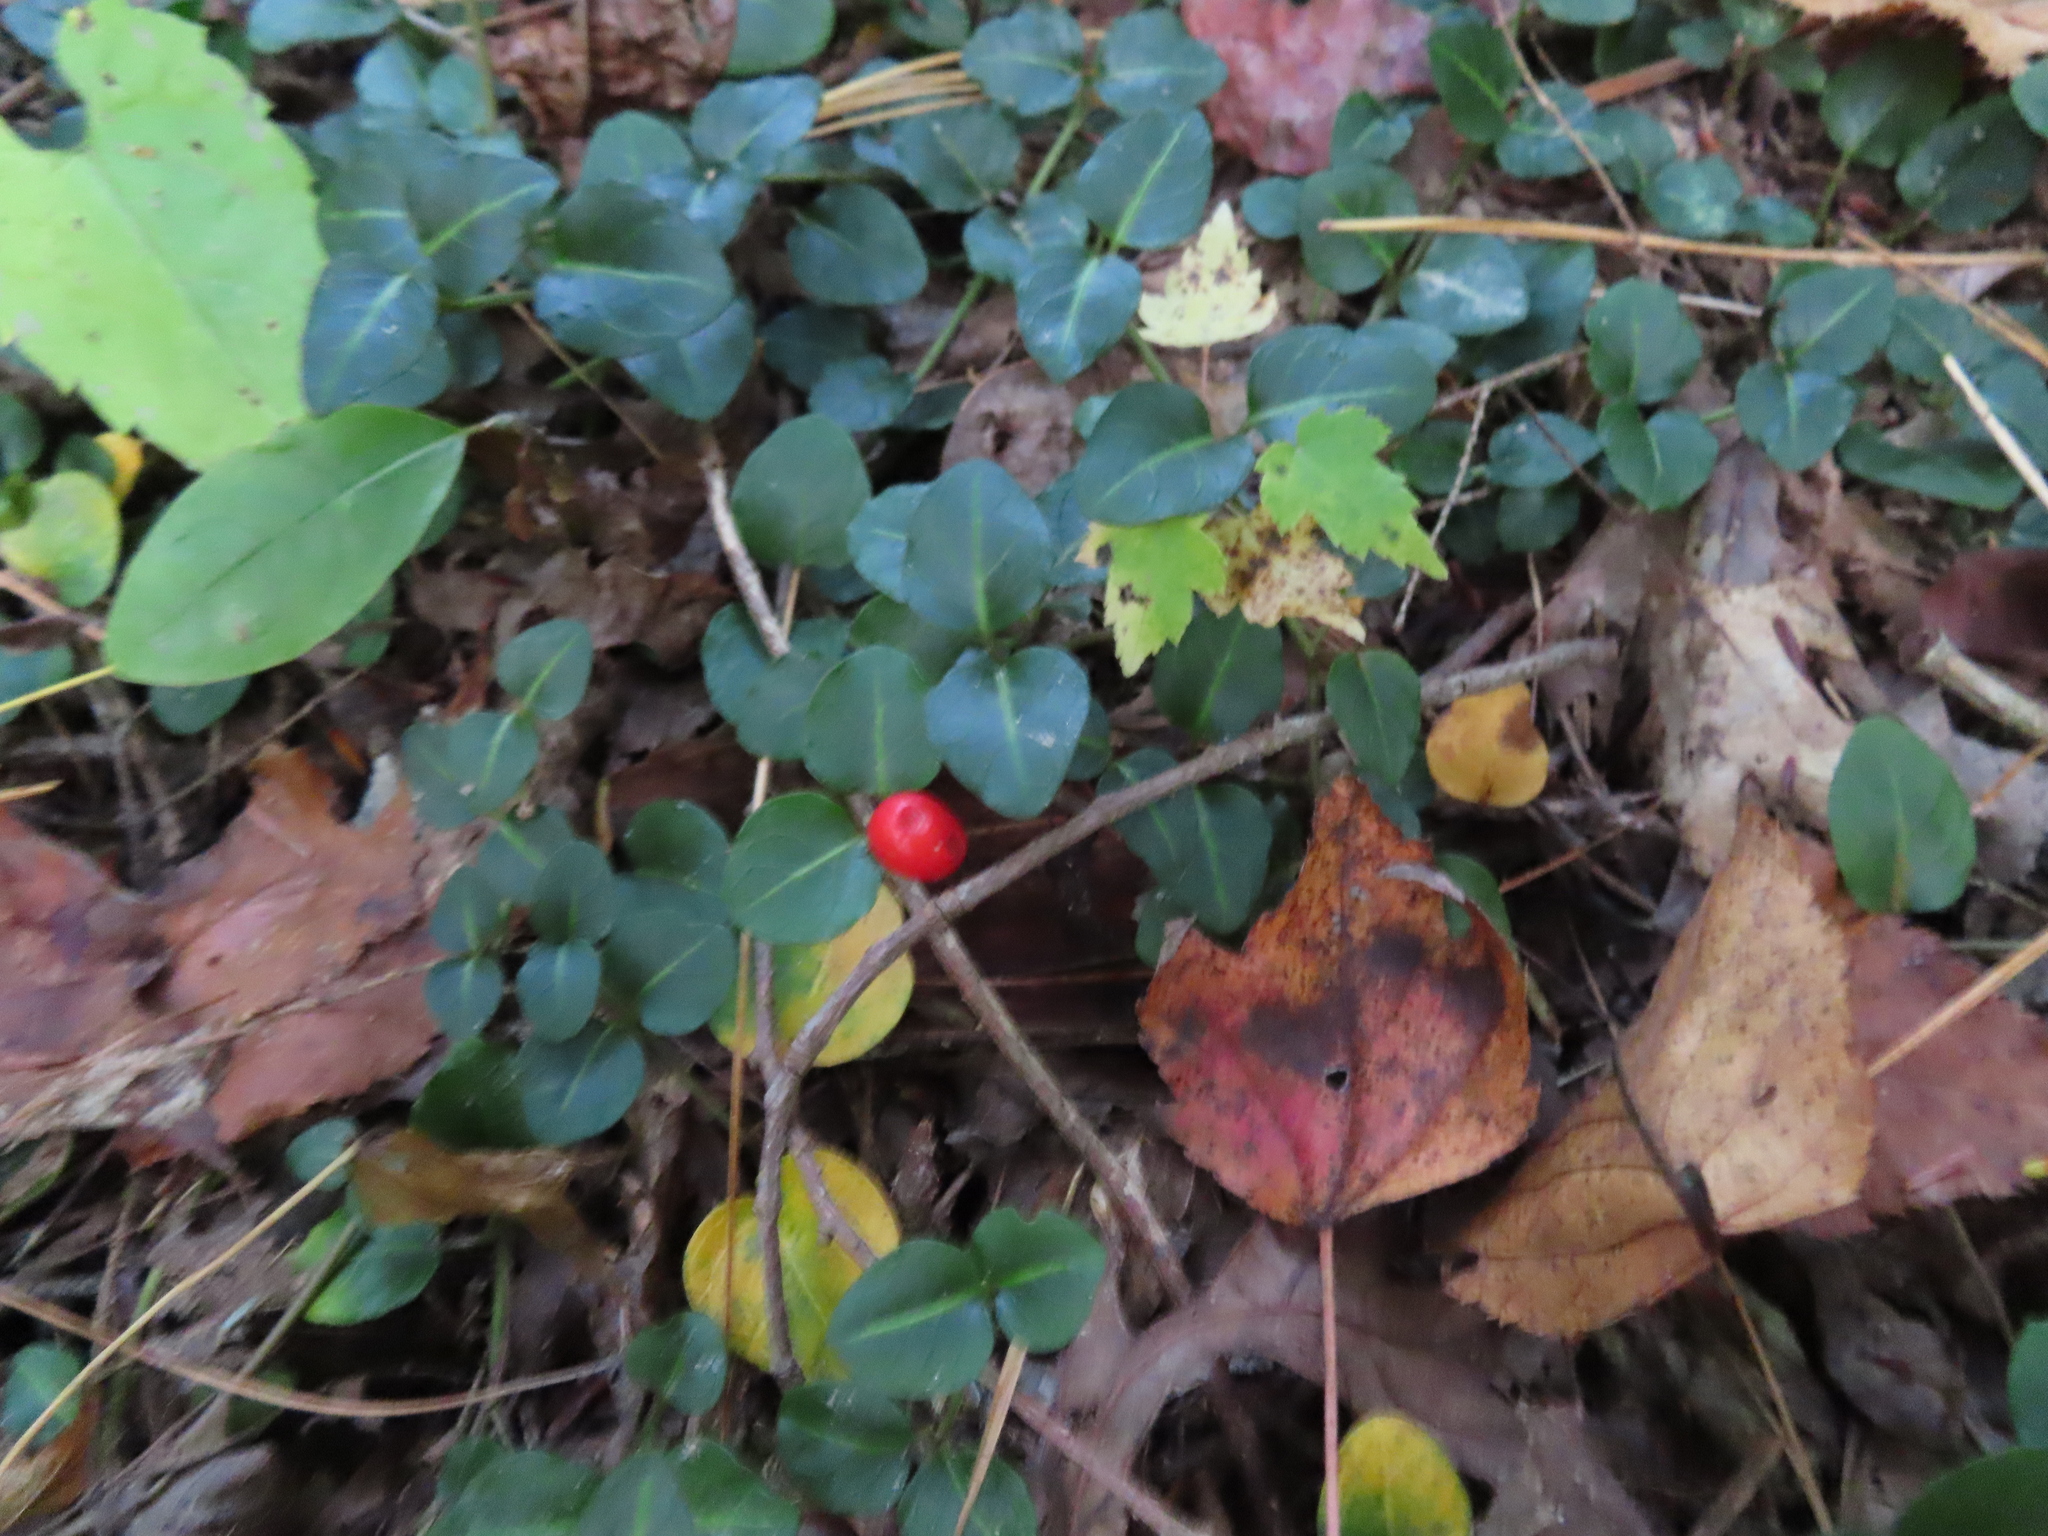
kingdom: Plantae
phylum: Tracheophyta
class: Magnoliopsida
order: Gentianales
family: Rubiaceae
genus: Mitchella
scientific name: Mitchella repens
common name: Partridge-berry
